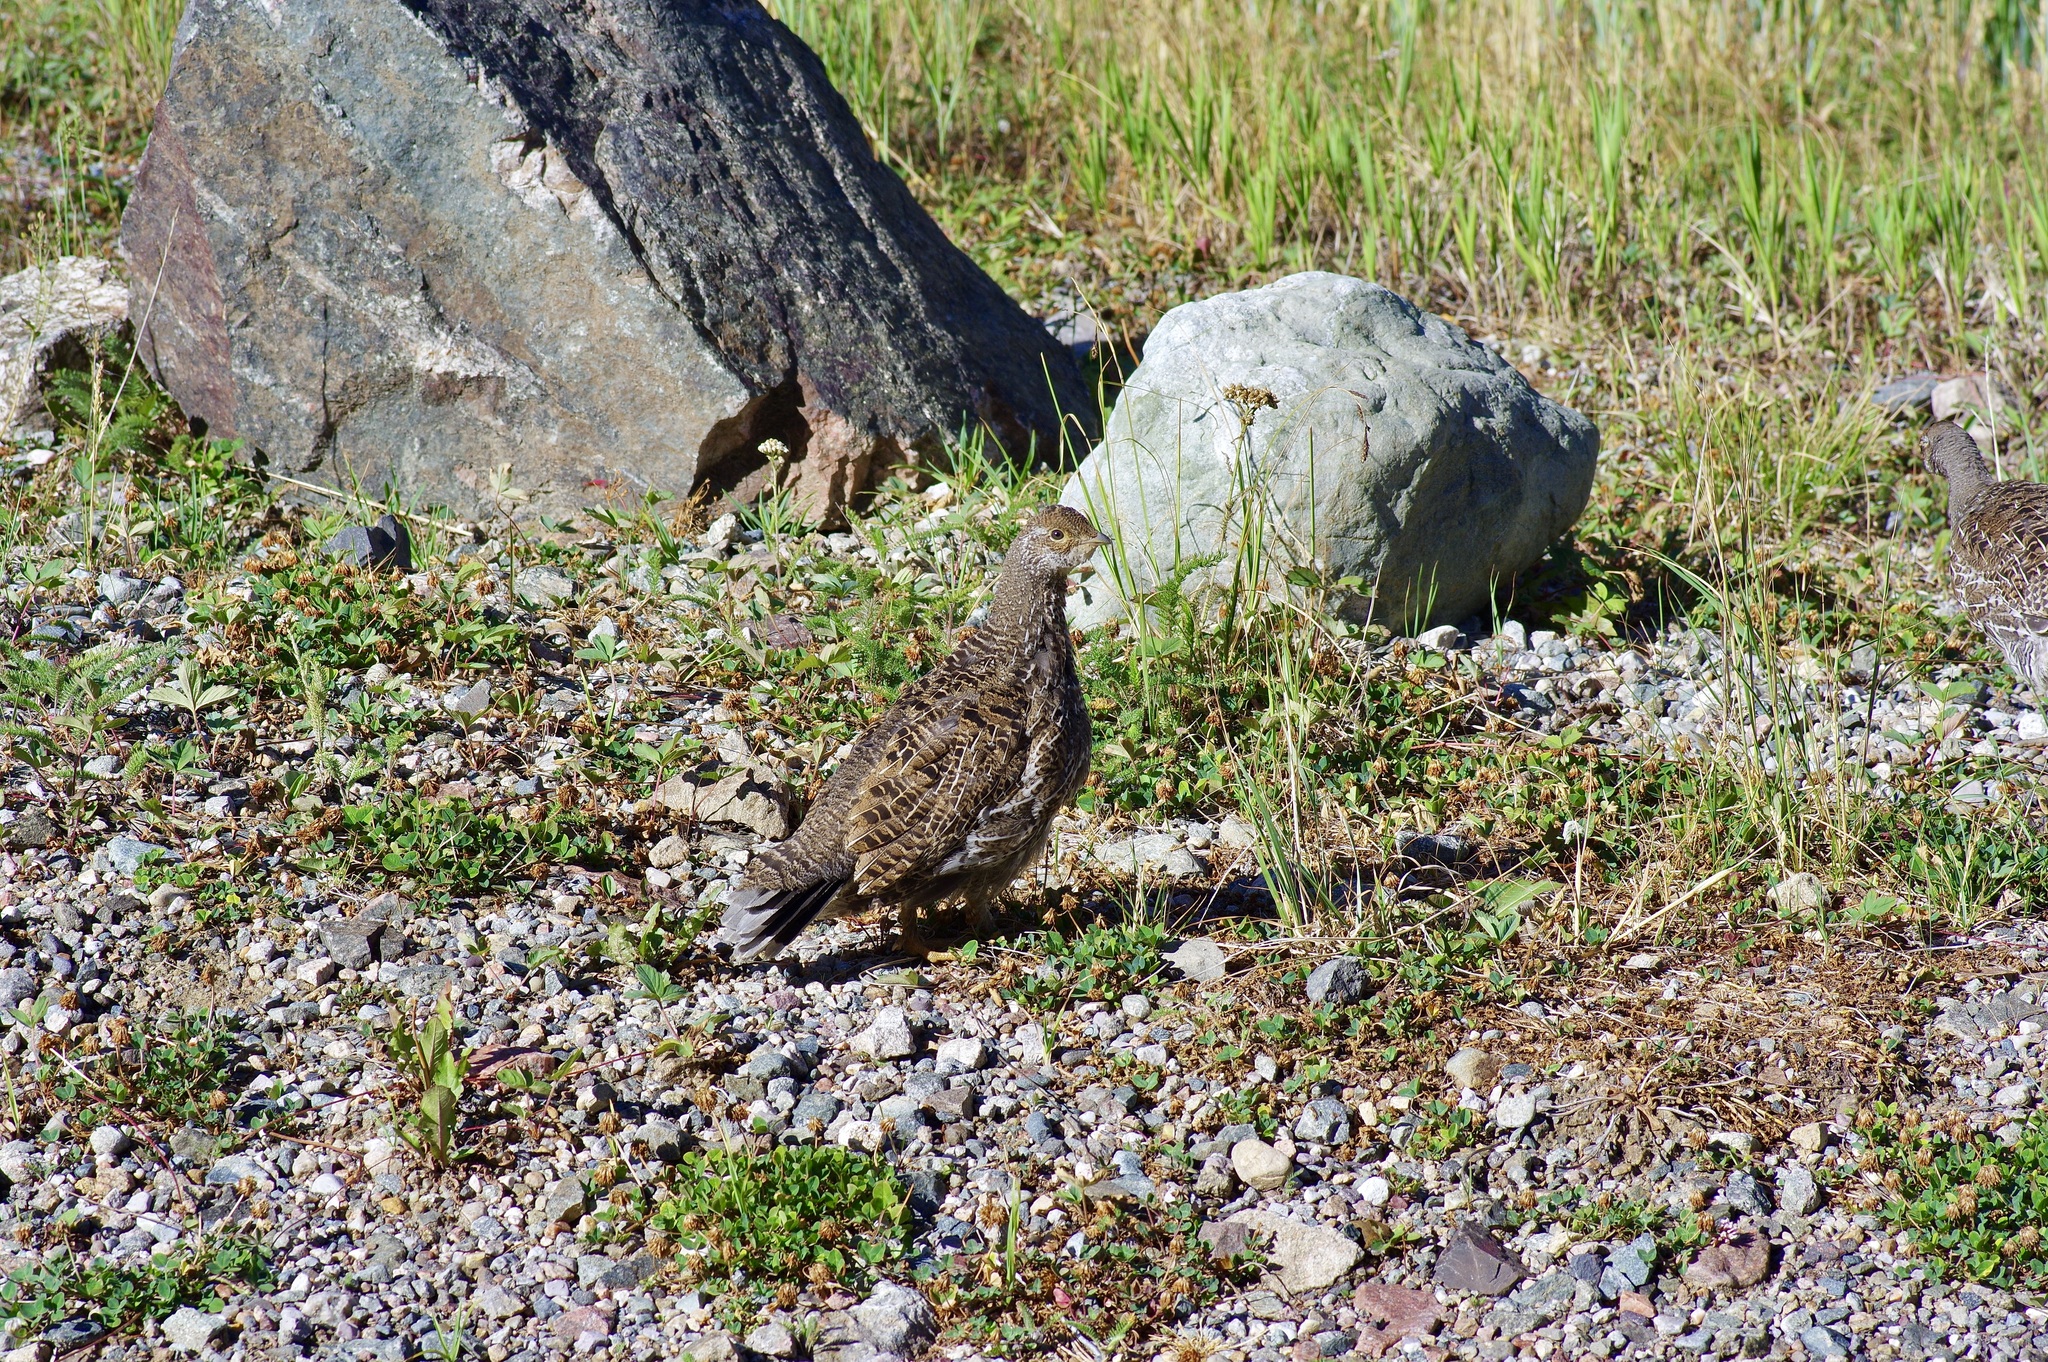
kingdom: Animalia
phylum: Chordata
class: Aves
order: Galliformes
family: Phasianidae
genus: Dendragapus
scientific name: Dendragapus obscurus
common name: Dusky grouse
